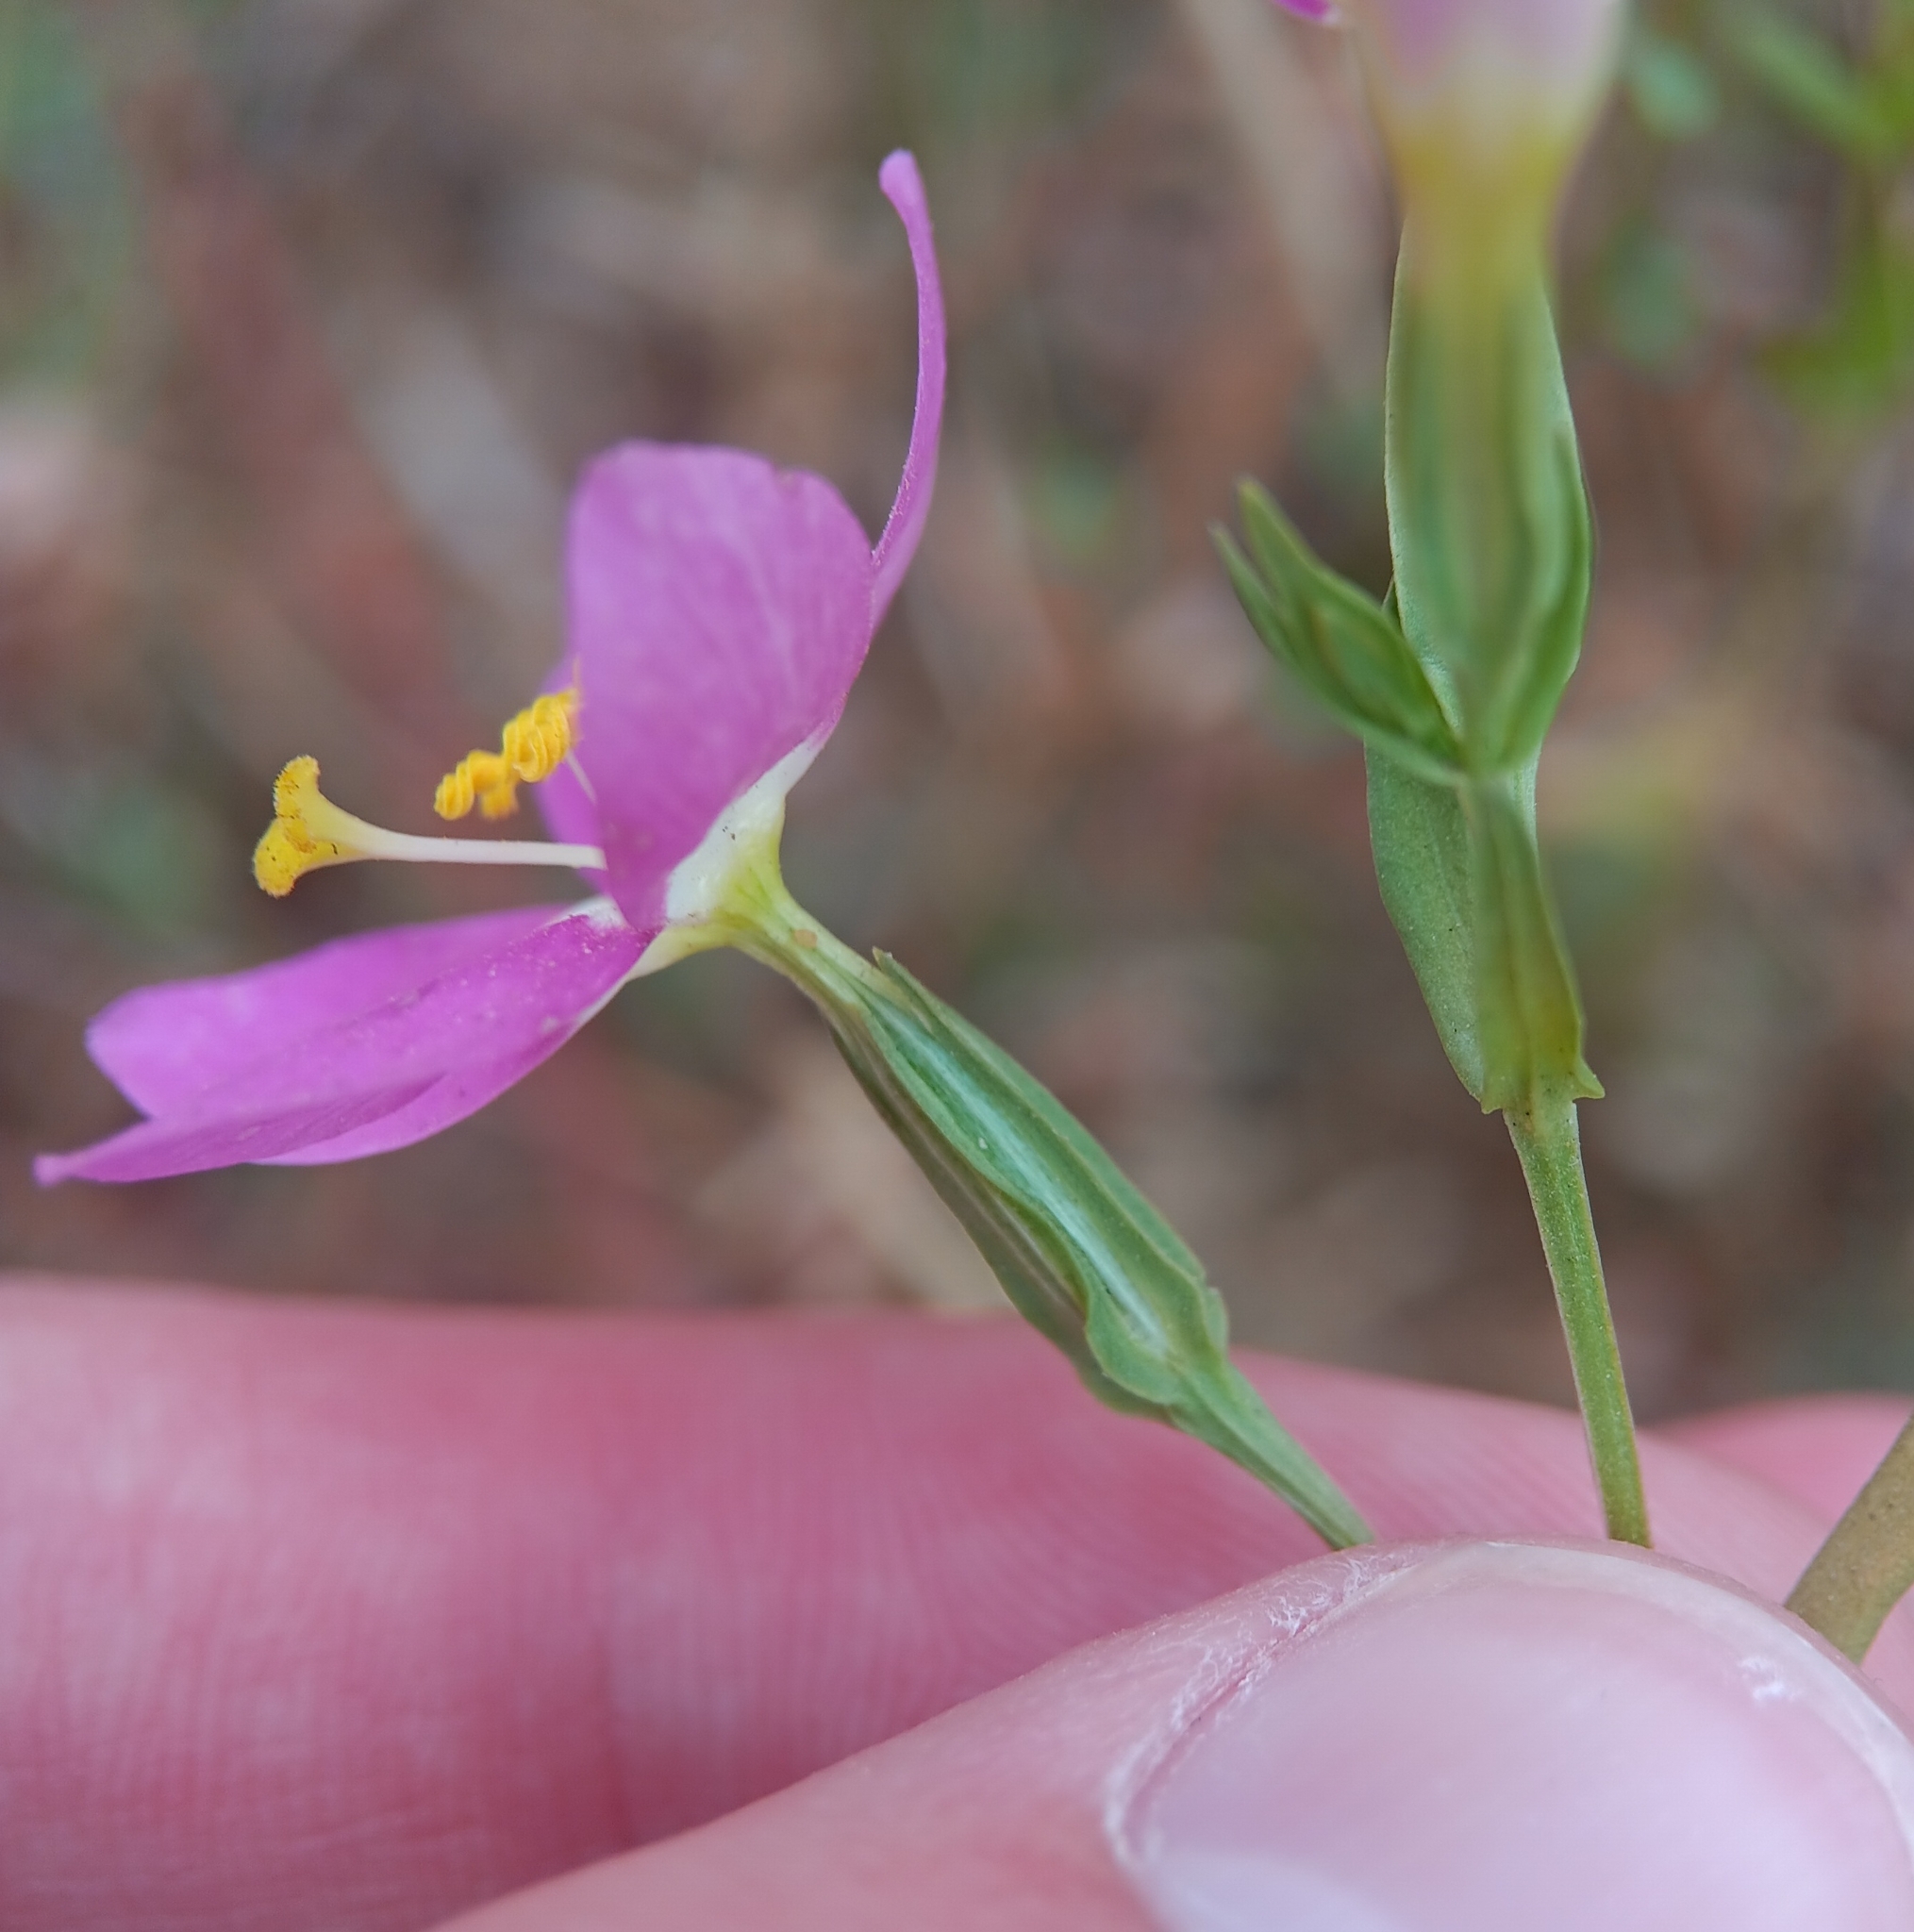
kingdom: Plantae
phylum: Tracheophyta
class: Magnoliopsida
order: Gentianales
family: Gentianaceae
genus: Zeltnera
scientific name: Zeltnera venusta
